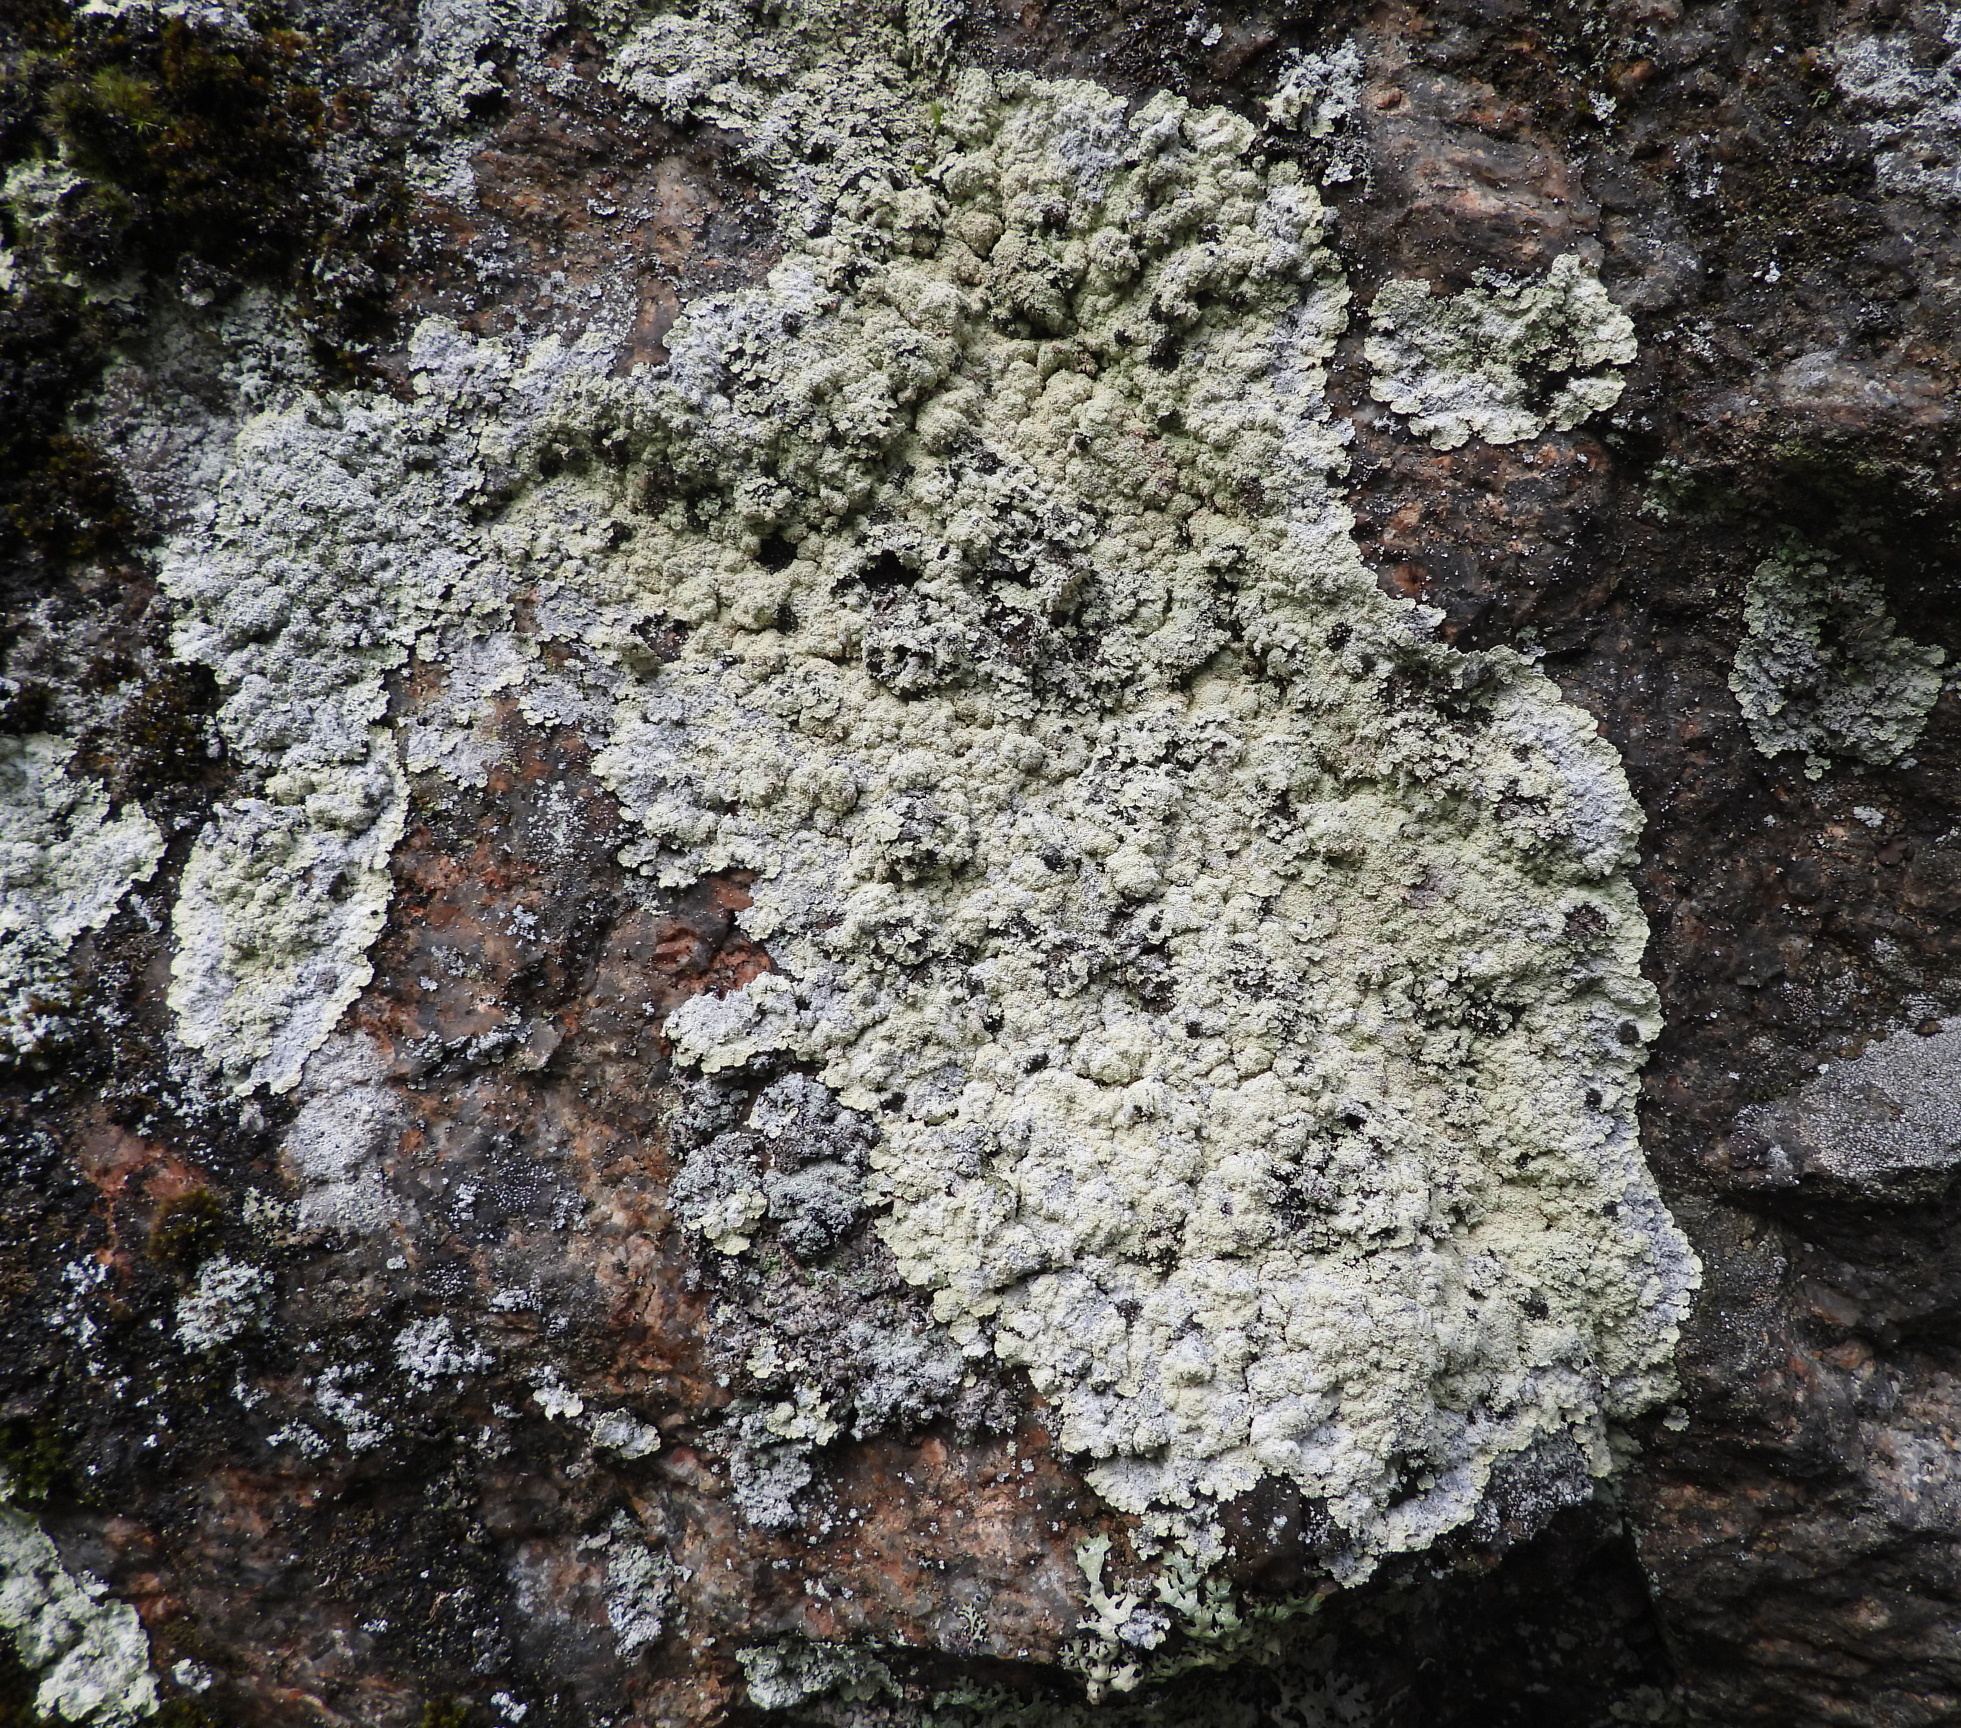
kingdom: Fungi
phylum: Ascomycota
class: Lecanoromycetes
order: Lecanorales
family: Stereocaulaceae
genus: Lepraria
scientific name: Lepraria membranacea
